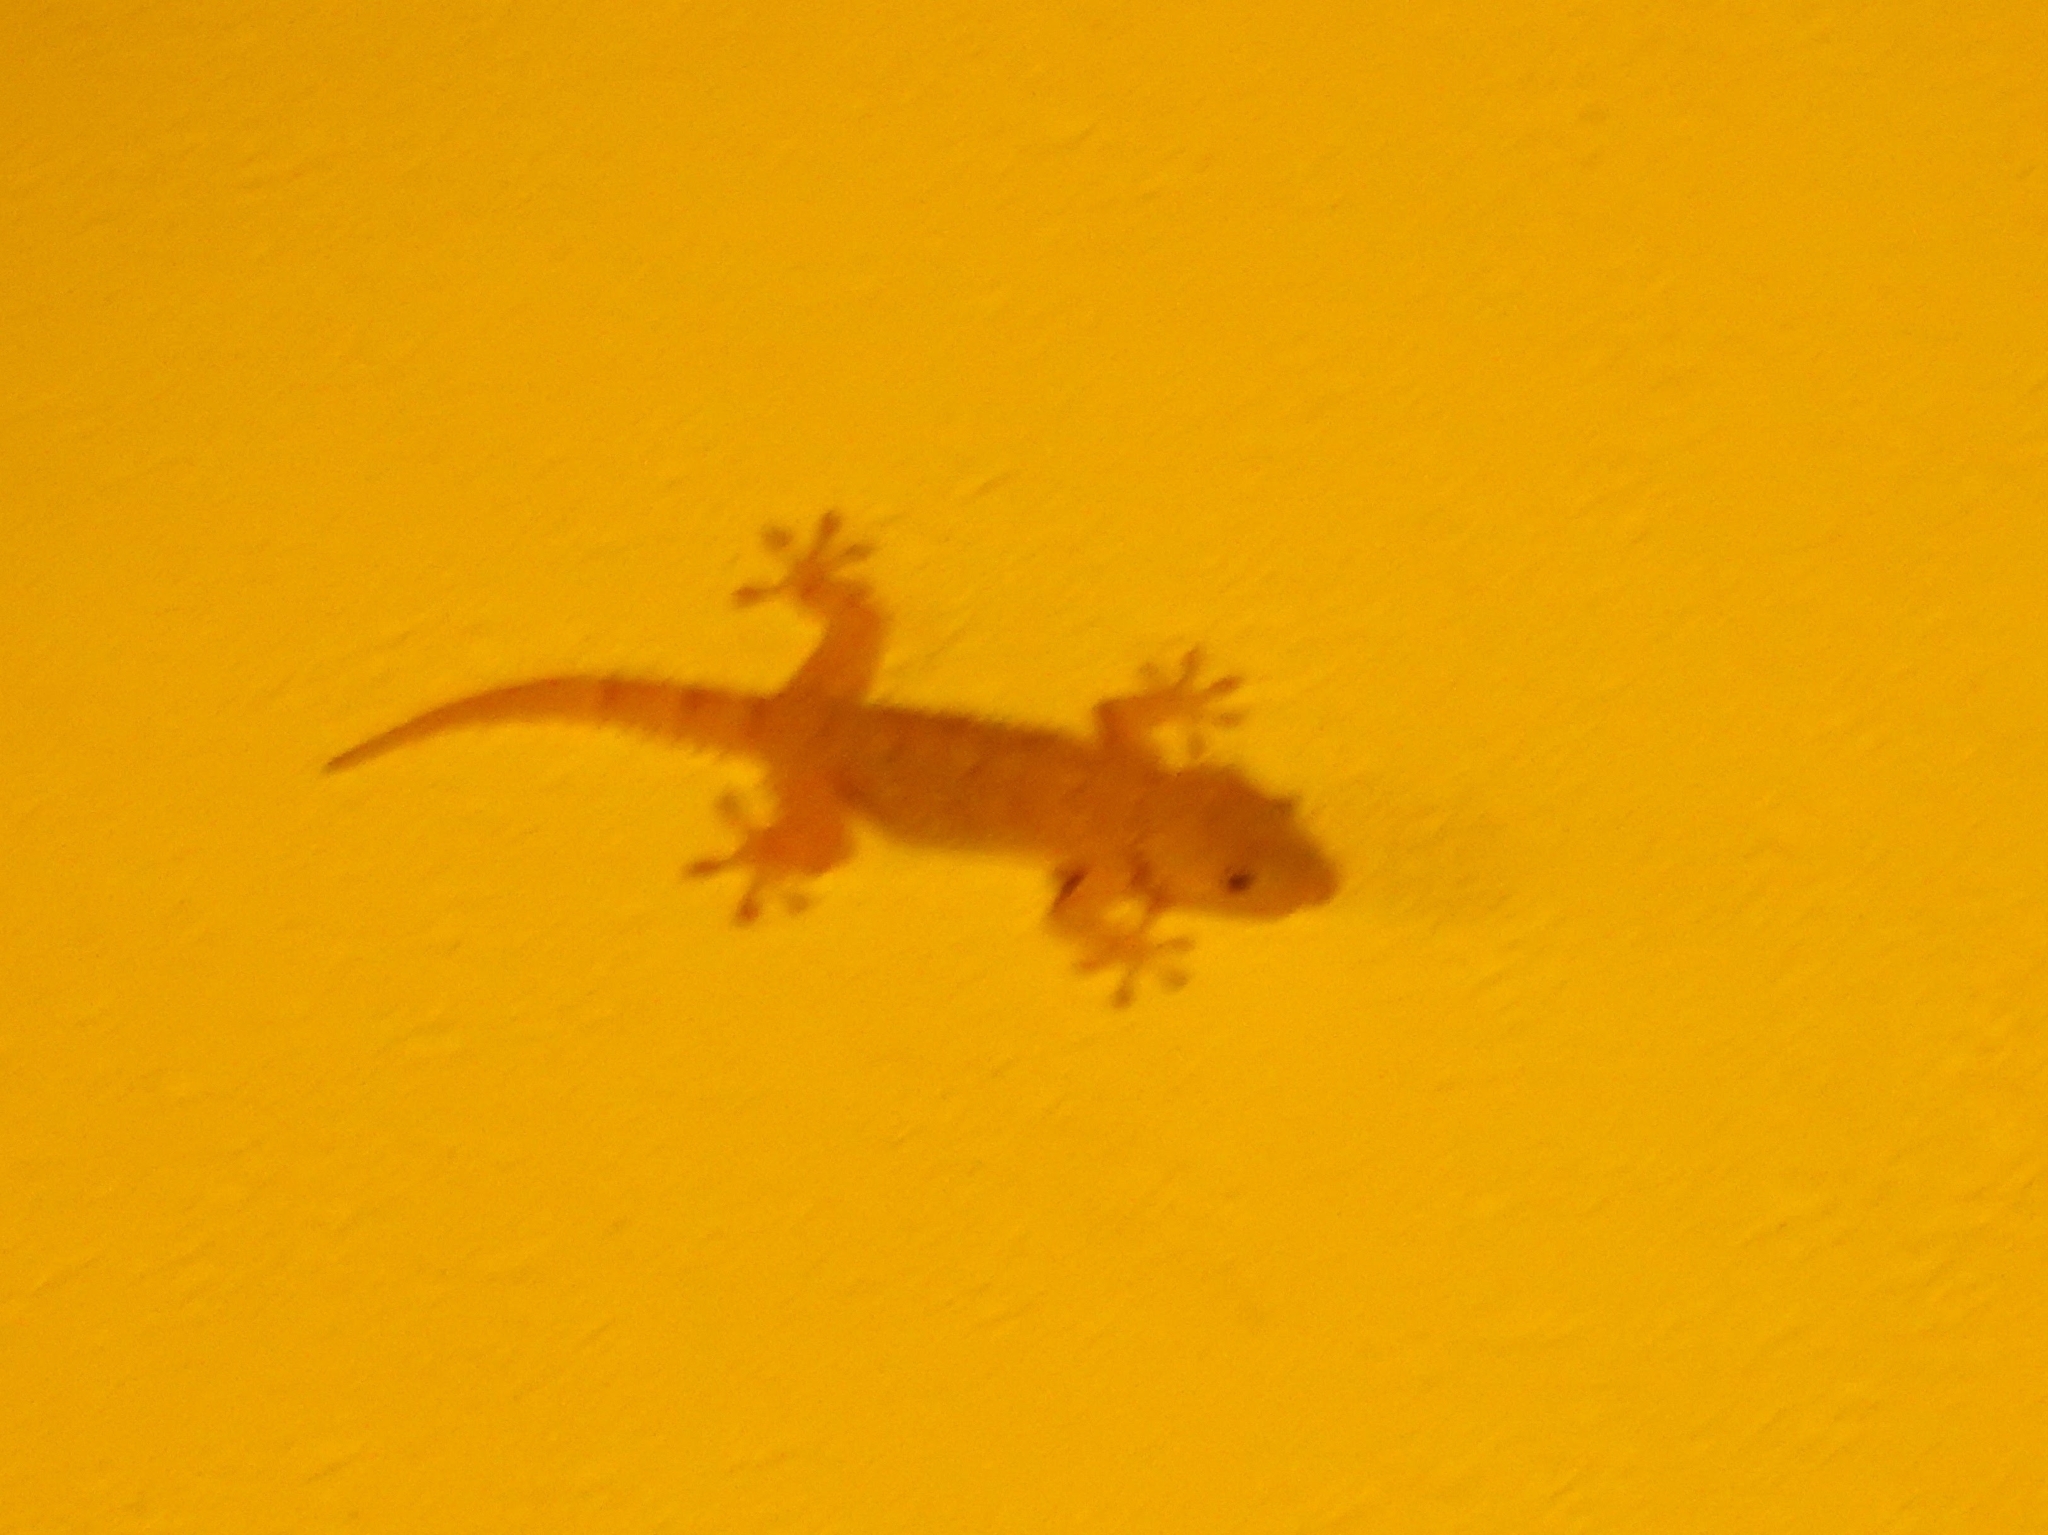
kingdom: Animalia
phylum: Chordata
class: Squamata
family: Phyllodactylidae
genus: Tarentola
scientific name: Tarentola mauritanica
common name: Moorish gecko
